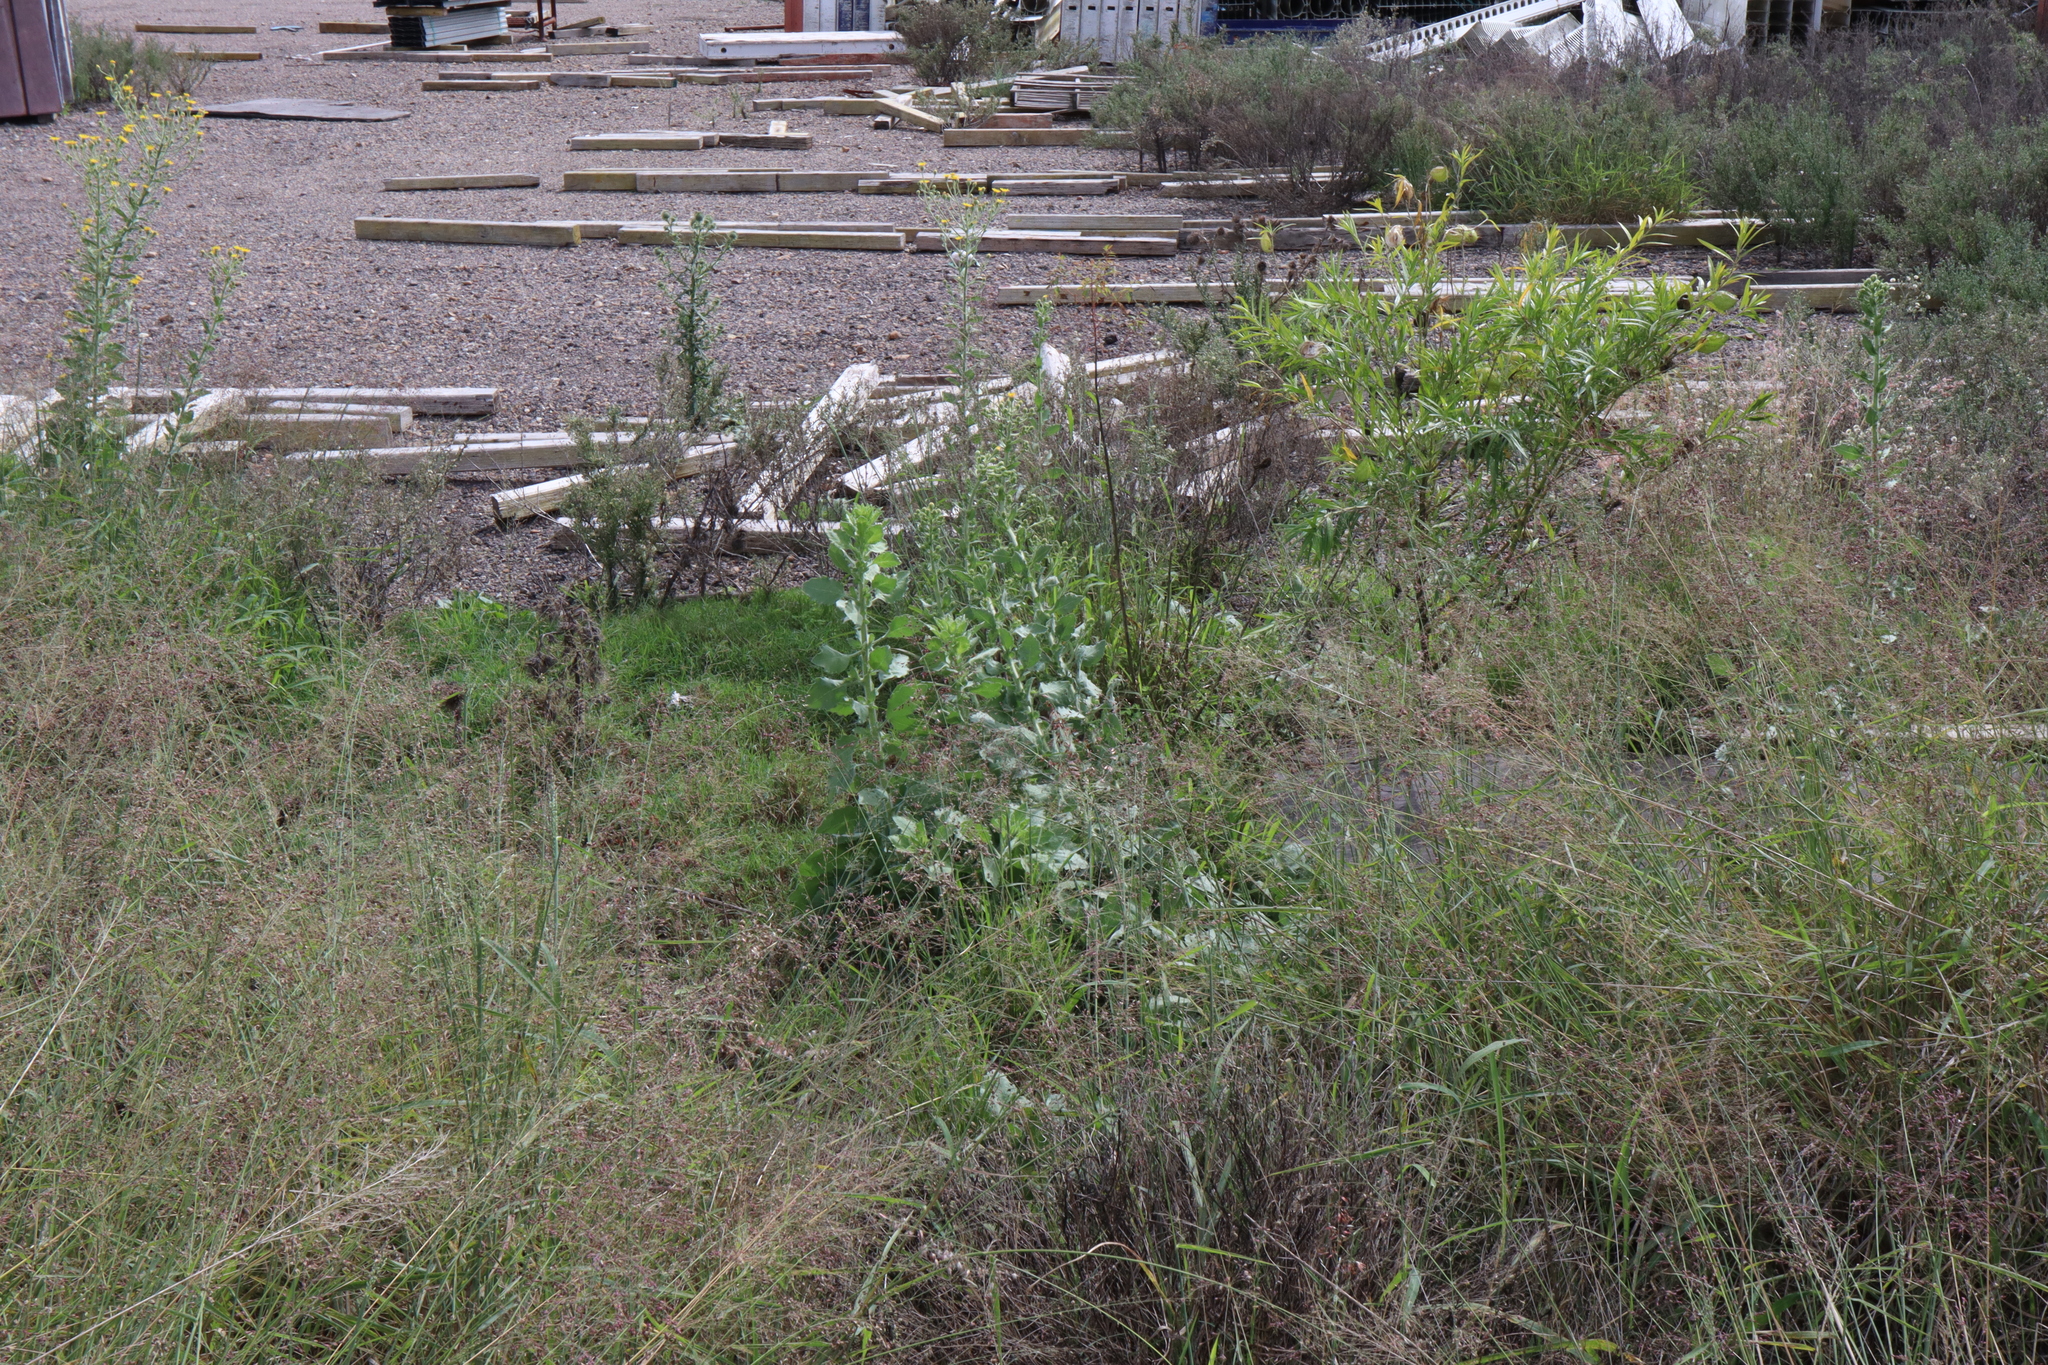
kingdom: Plantae
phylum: Tracheophyta
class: Magnoliopsida
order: Asterales
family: Asteraceae
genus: Heterotheca
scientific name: Heterotheca grandiflora
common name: Telegraphweed
